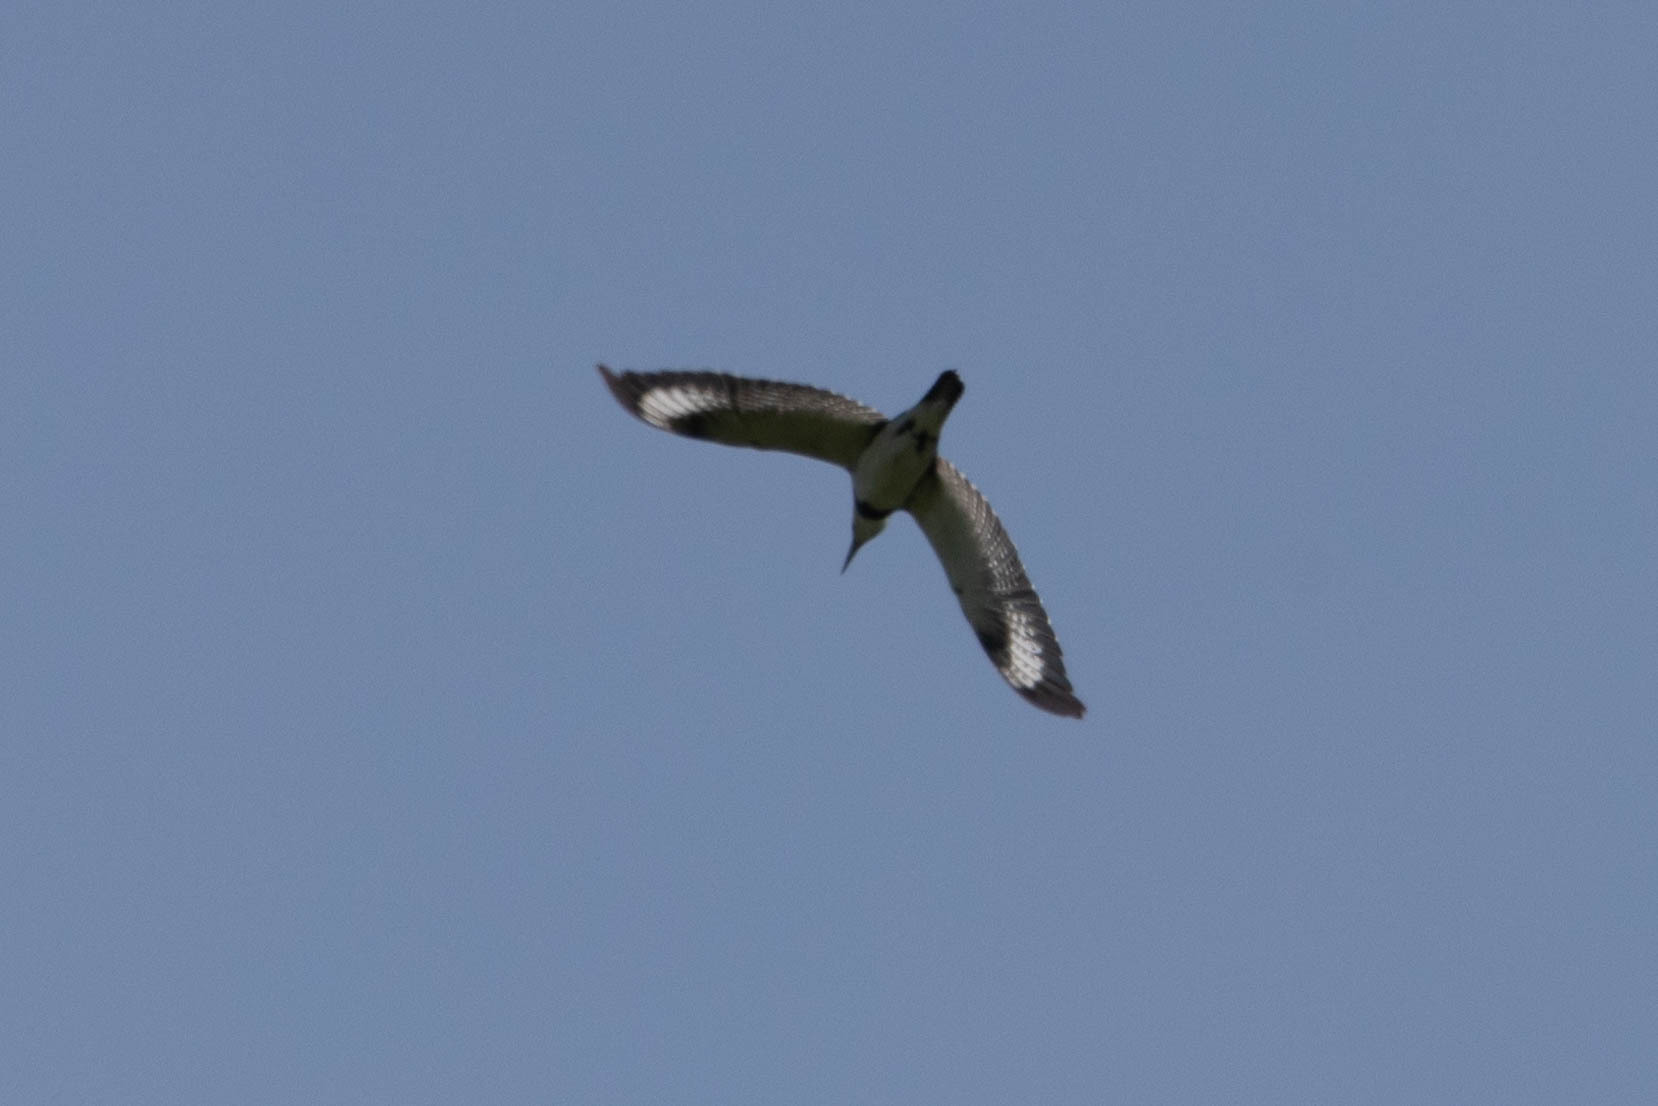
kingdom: Animalia
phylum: Chordata
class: Aves
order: Coraciiformes
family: Alcedinidae
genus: Megaceryle
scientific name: Megaceryle alcyon
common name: Belted kingfisher
